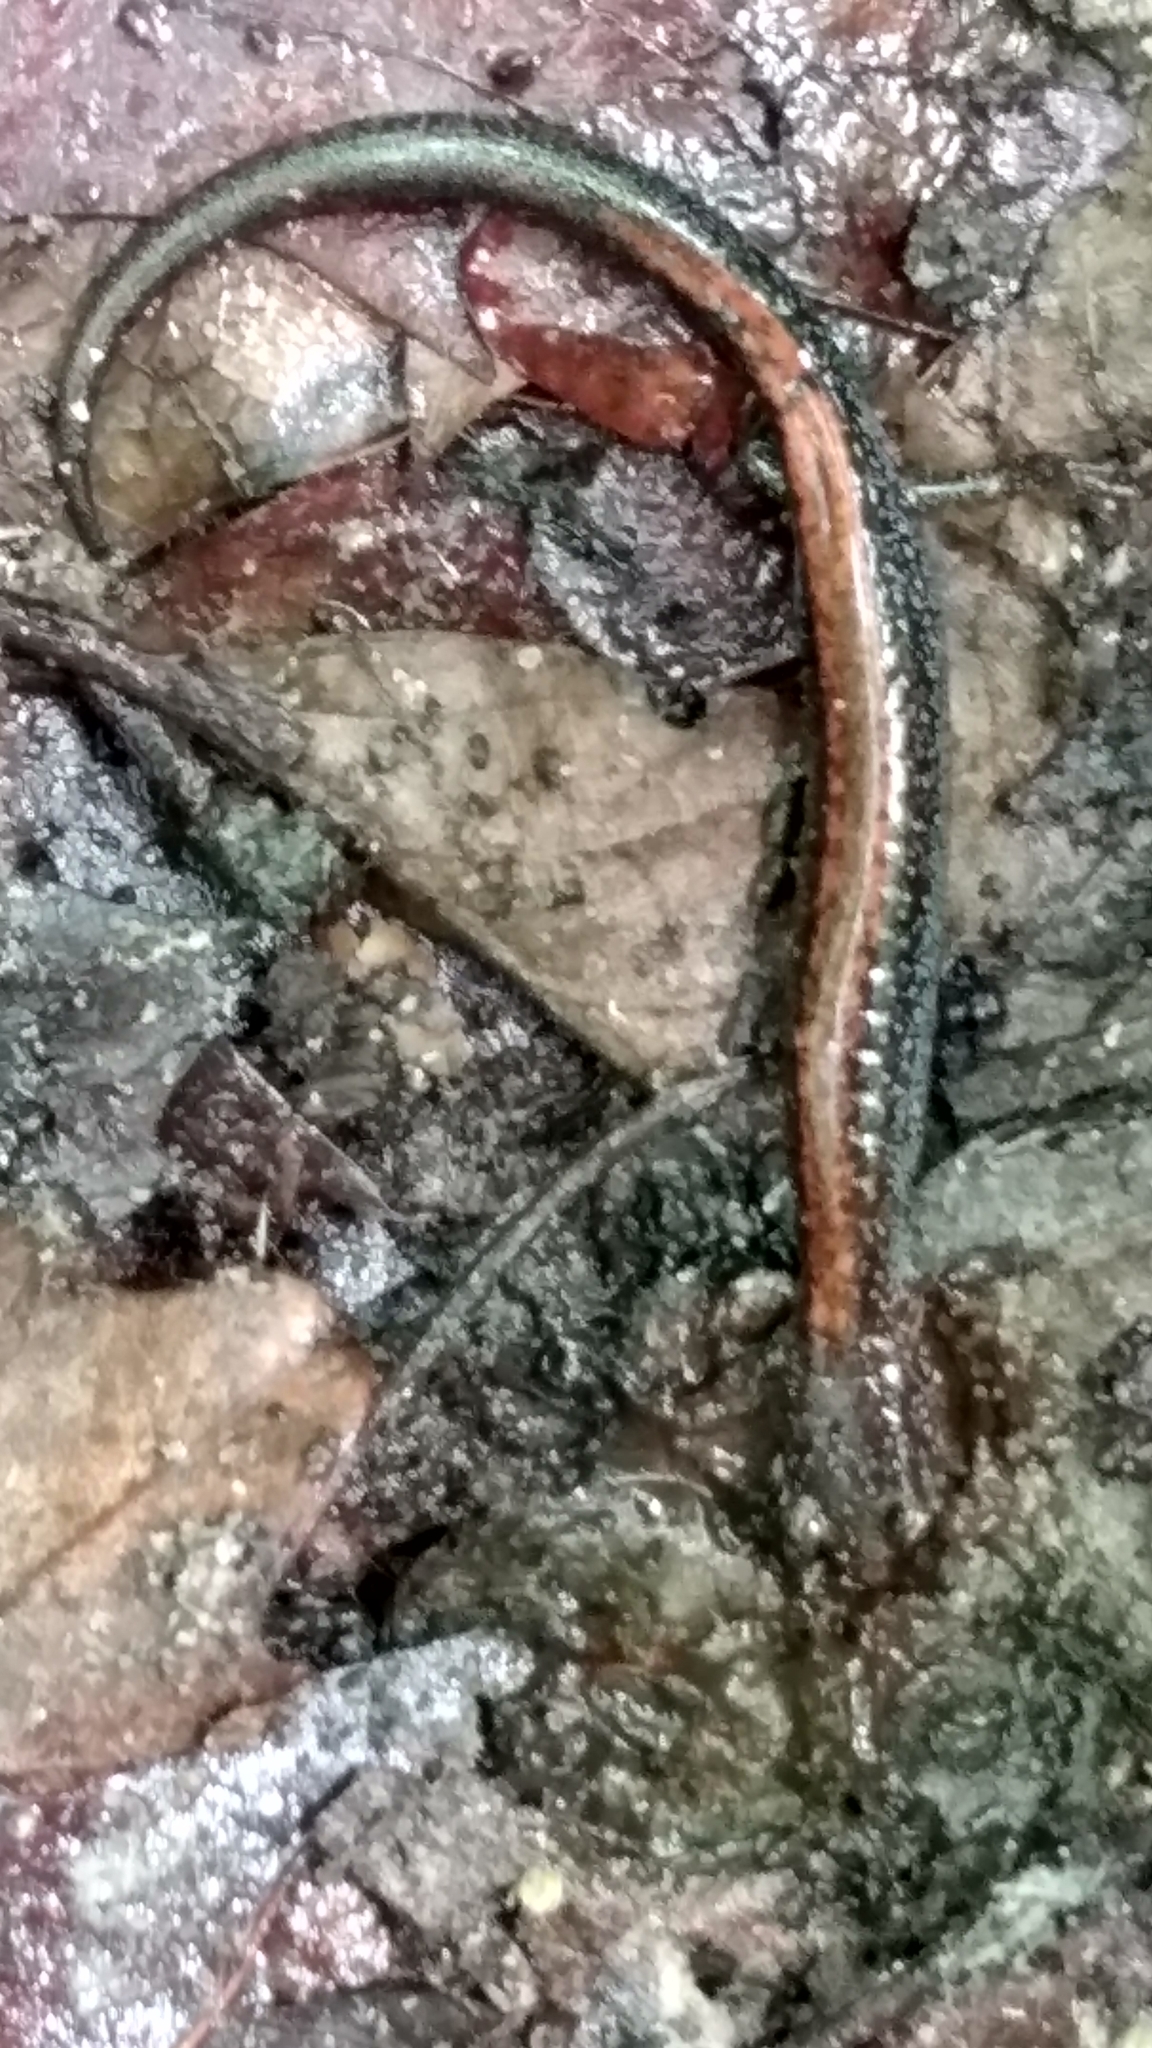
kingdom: Animalia
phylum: Chordata
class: Amphibia
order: Caudata
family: Plethodontidae
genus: Plethodon
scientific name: Plethodon cinereus
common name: Redback salamander
